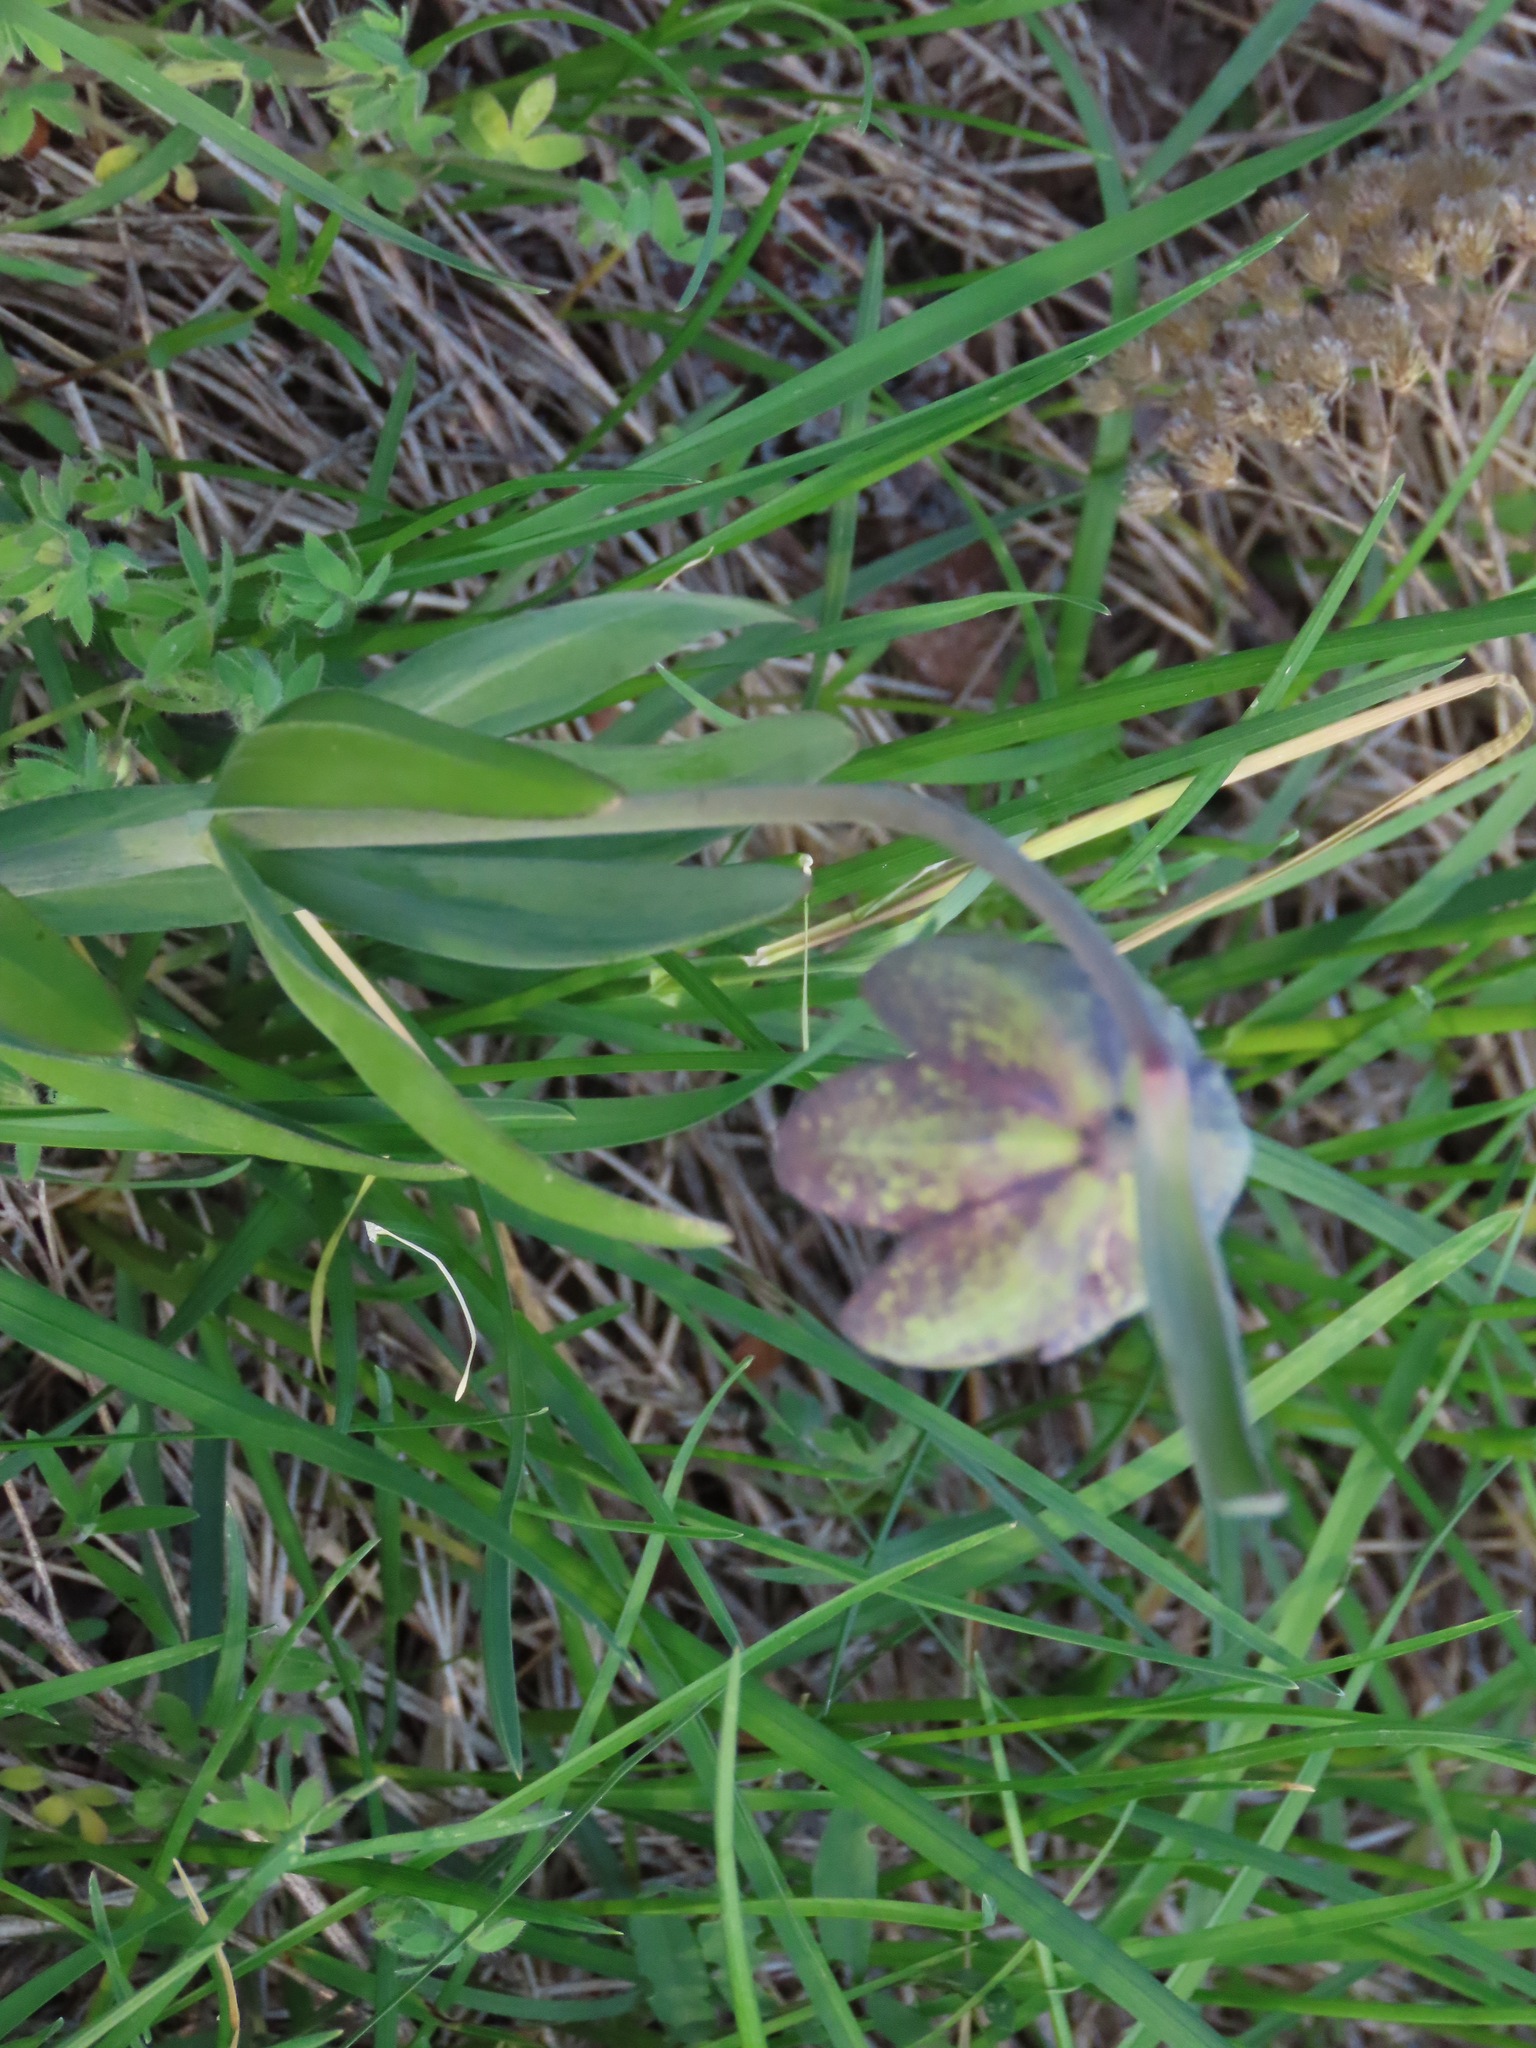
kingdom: Plantae
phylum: Tracheophyta
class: Liliopsida
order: Liliales
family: Liliaceae
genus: Fritillaria
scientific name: Fritillaria affinis
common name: Ojai fritillary
